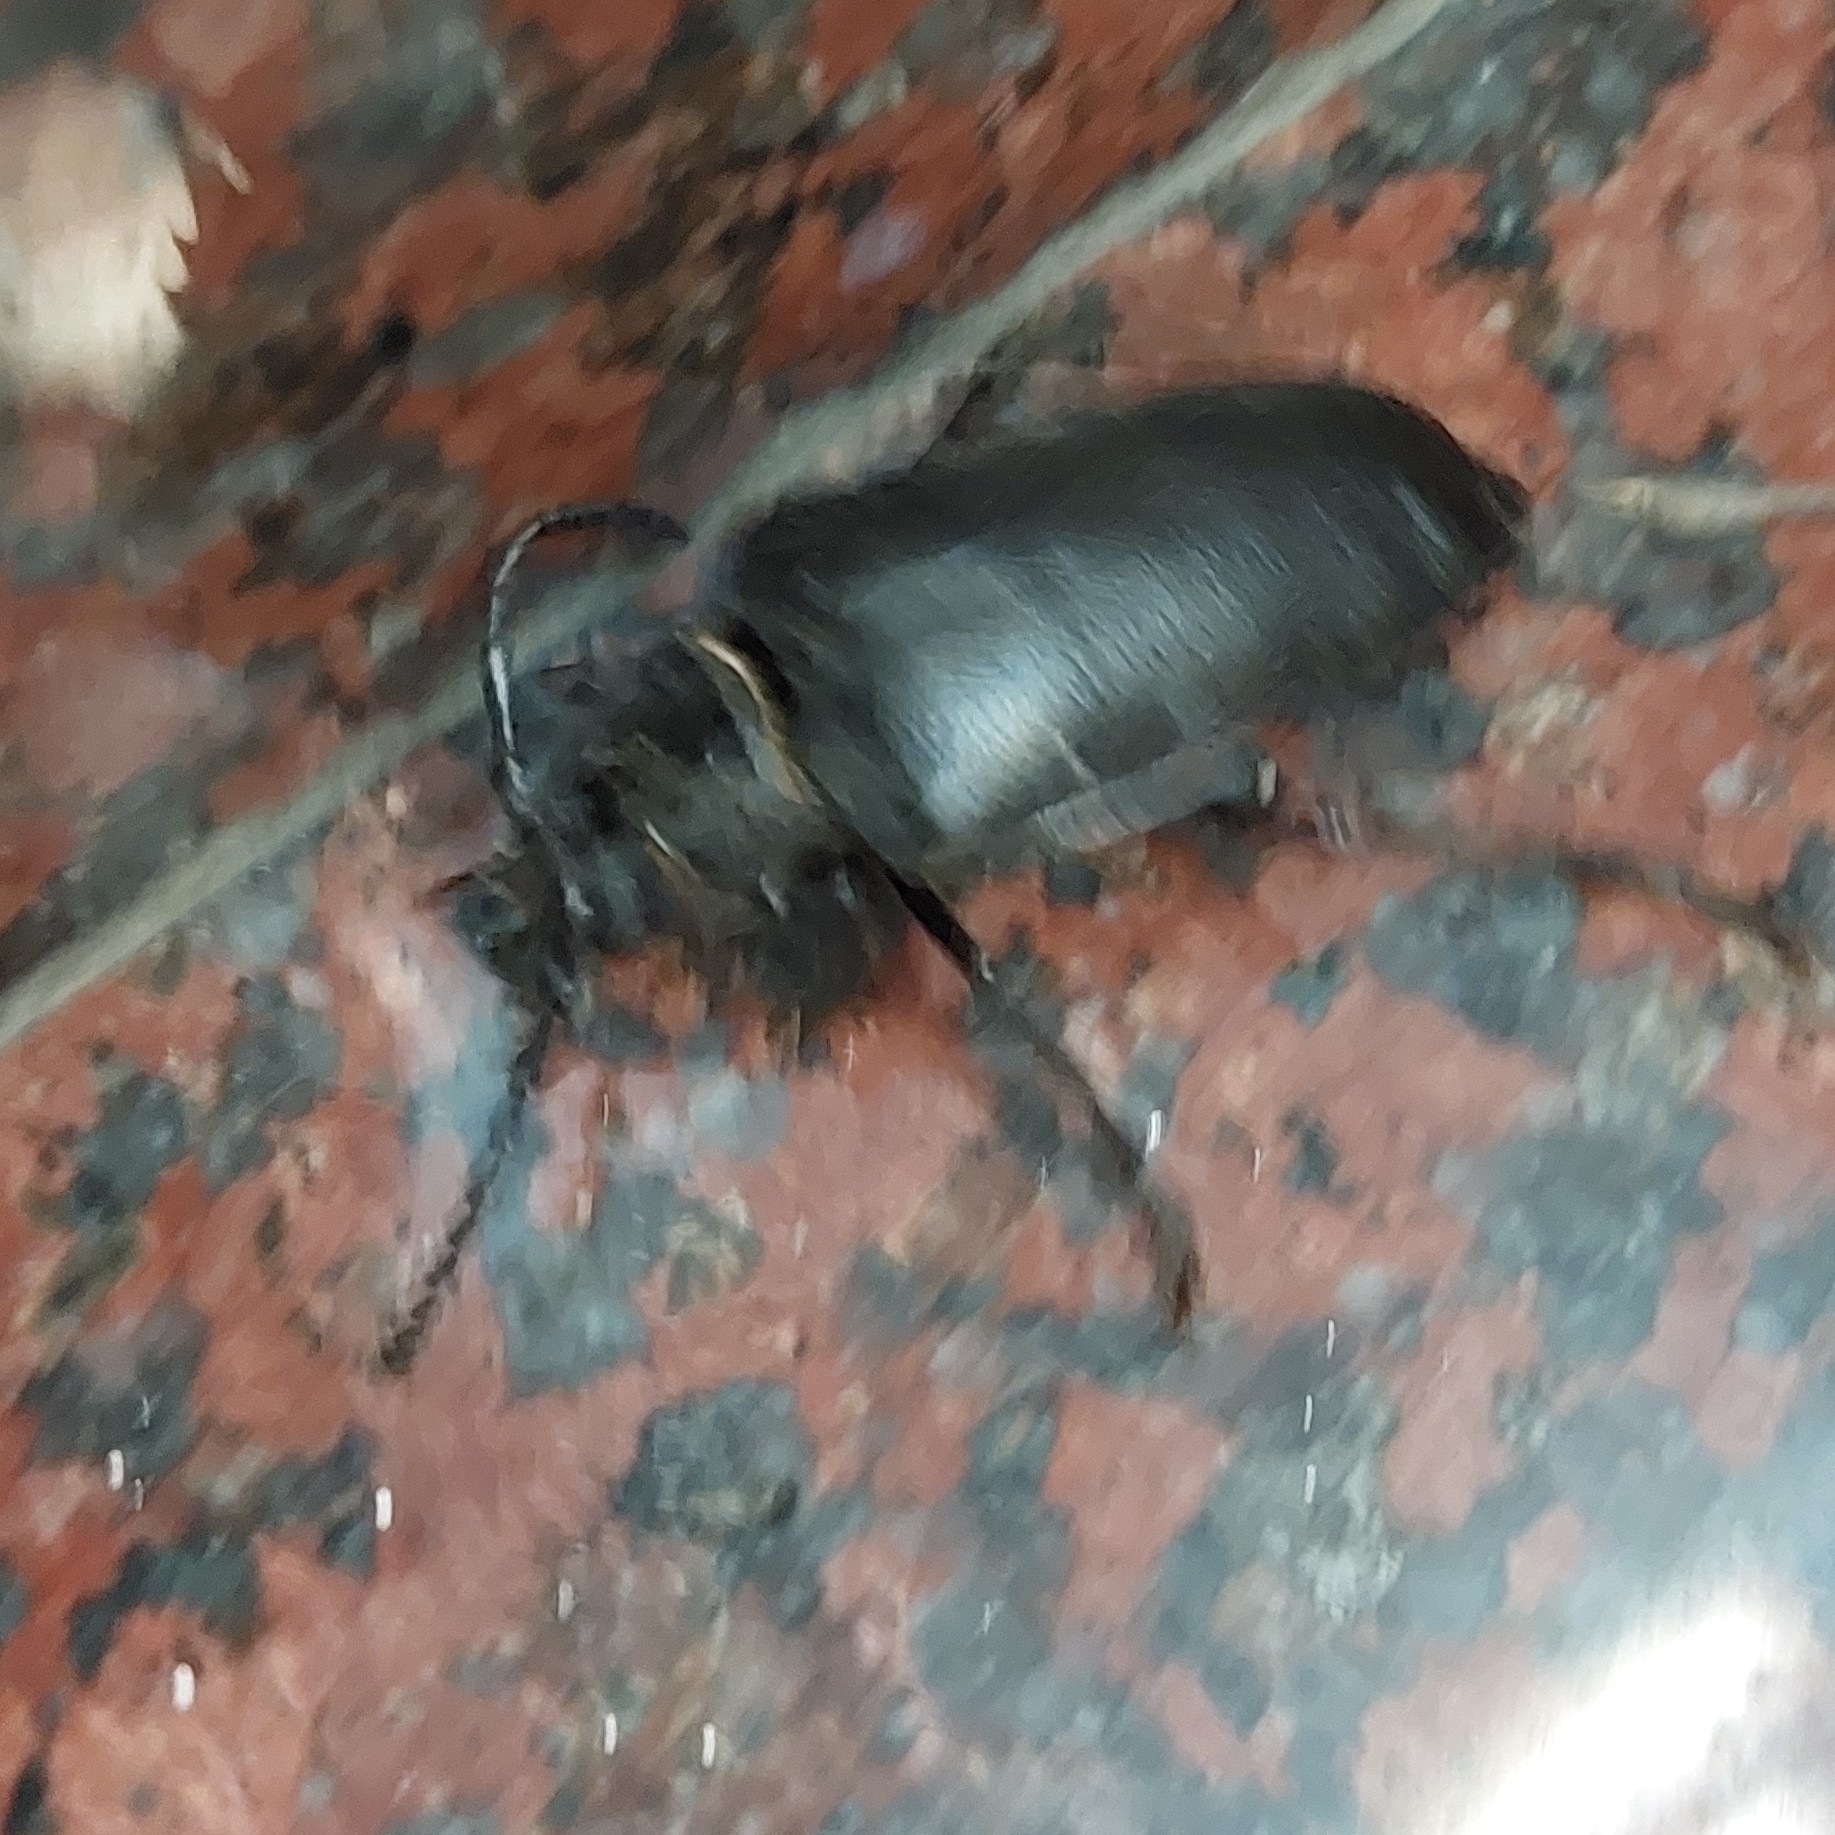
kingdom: Animalia
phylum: Arthropoda
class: Insecta
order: Coleoptera
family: Cerambycidae
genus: Prionus
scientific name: Prionus coriarius
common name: Tanner beetle
